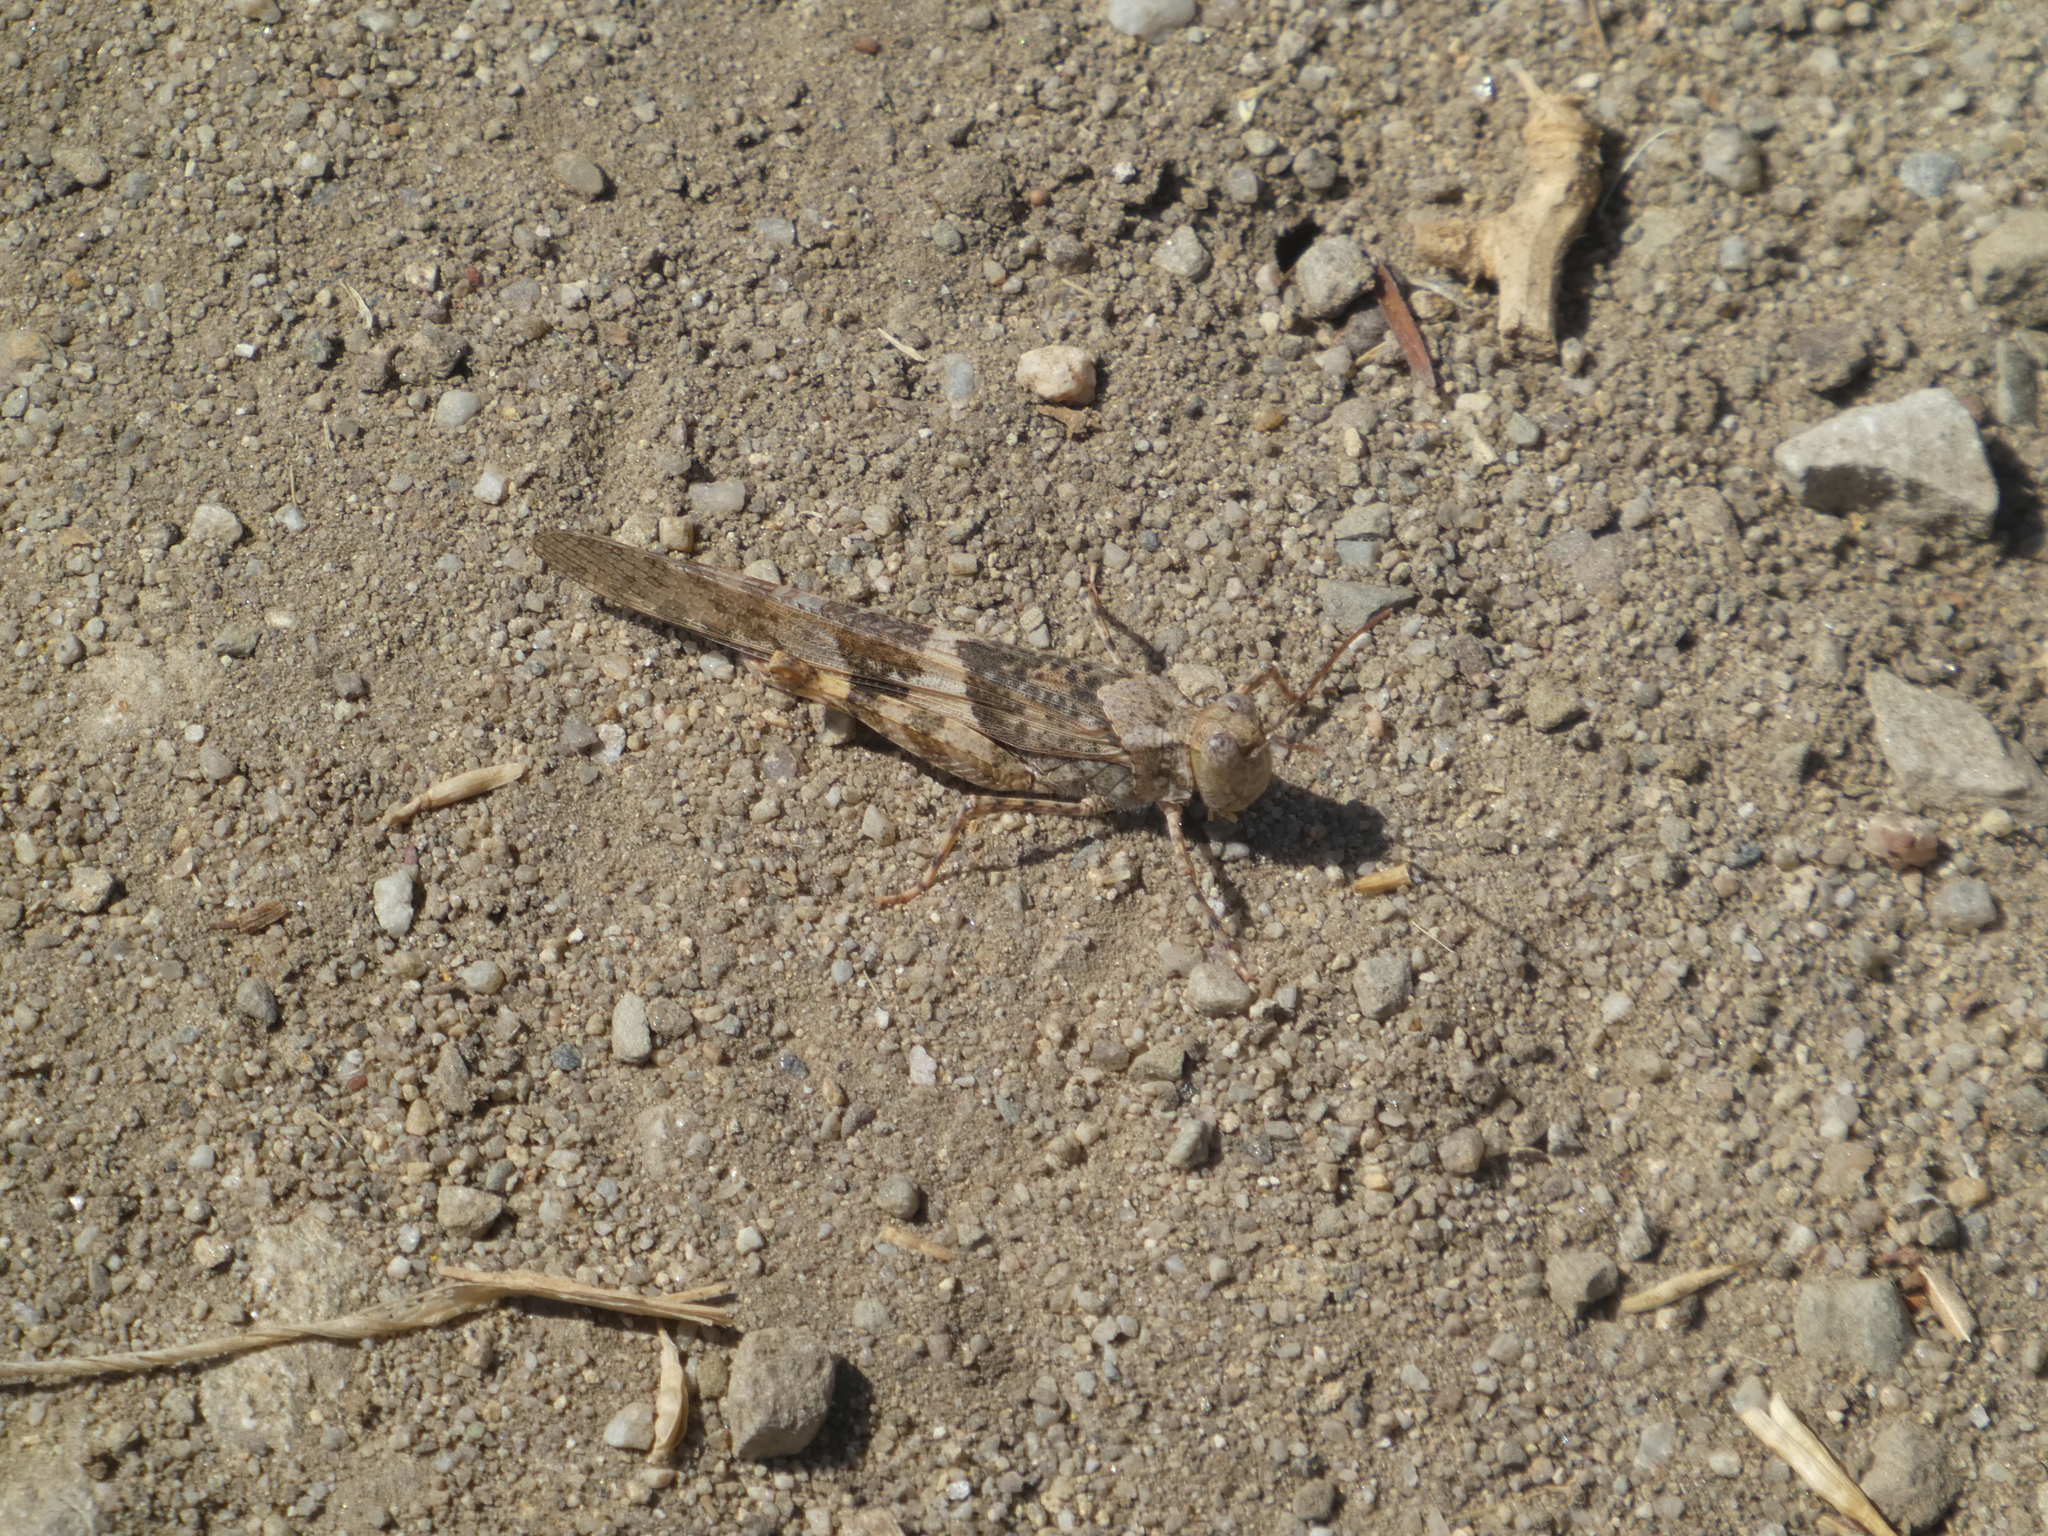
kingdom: Animalia
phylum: Arthropoda
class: Insecta
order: Orthoptera
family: Acrididae
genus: Trimerotropis
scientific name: Trimerotropis pallidipennis
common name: Pallid-winged grasshopper
